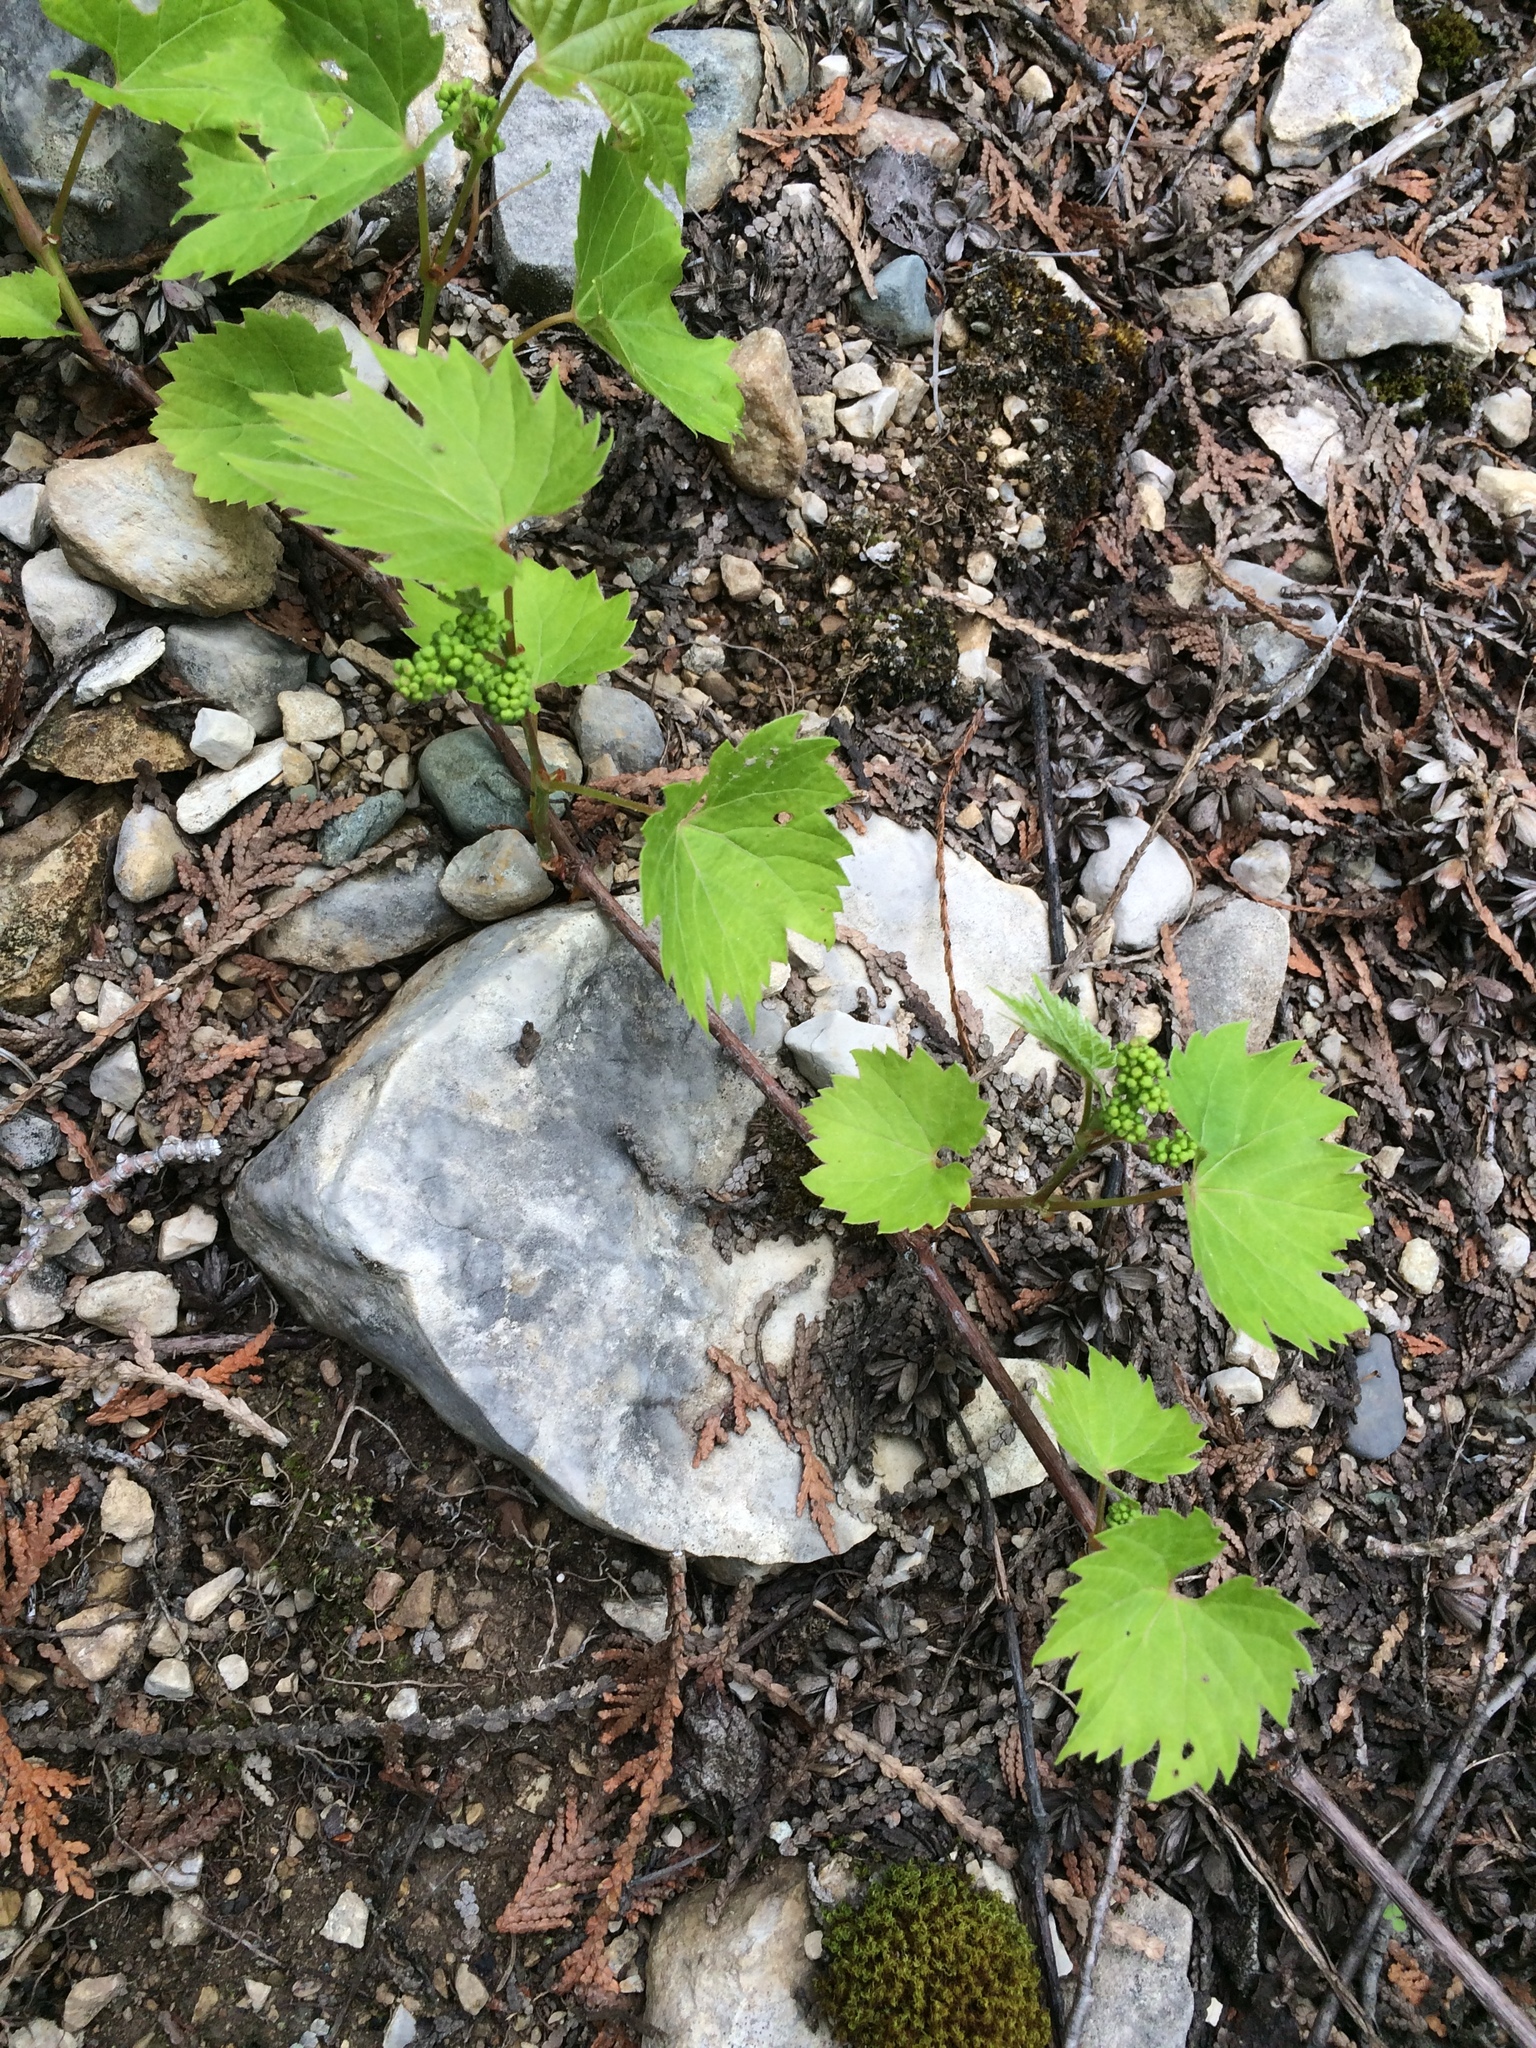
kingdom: Plantae
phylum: Tracheophyta
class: Magnoliopsida
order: Vitales
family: Vitaceae
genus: Vitis
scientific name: Vitis riparia
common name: Frost grape
